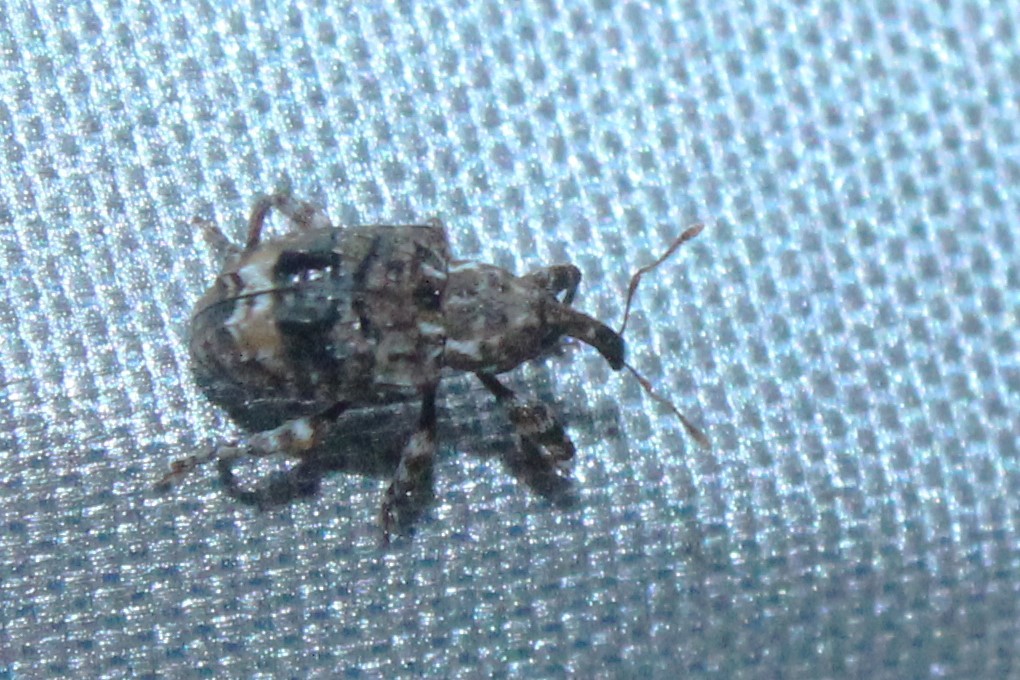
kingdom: Animalia
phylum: Arthropoda
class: Insecta
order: Coleoptera
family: Curculionidae
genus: Conotrachelus
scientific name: Conotrachelus nenuphar
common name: Plum curculio
